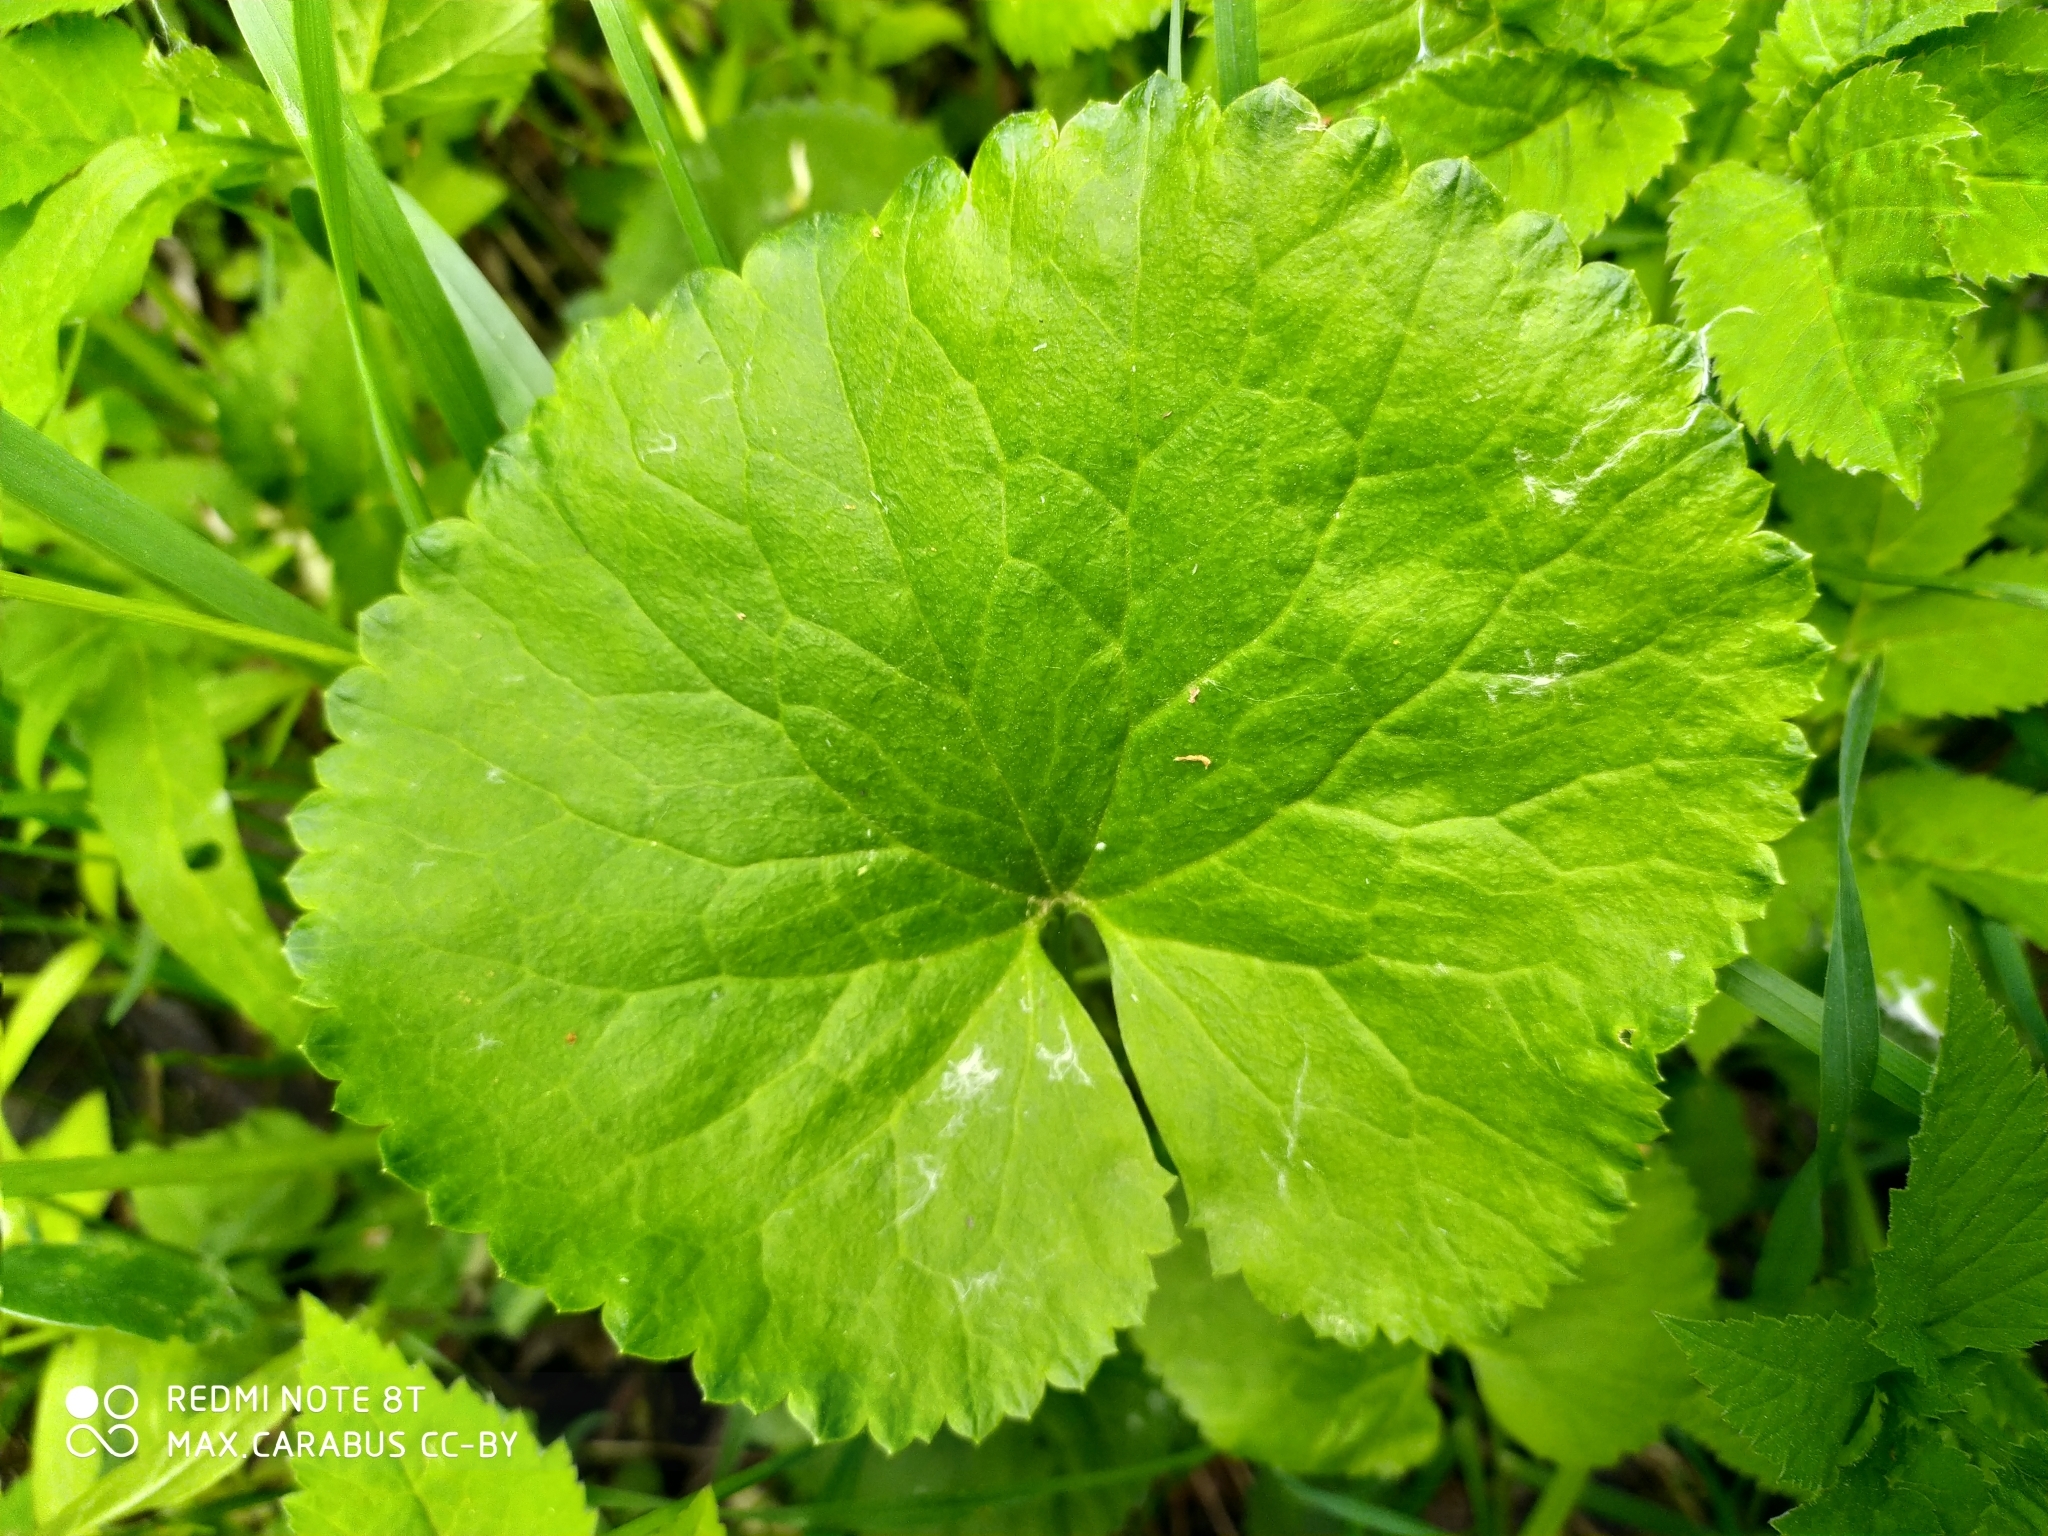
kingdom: Plantae
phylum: Tracheophyta
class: Magnoliopsida
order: Ranunculales
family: Ranunculaceae
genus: Ranunculus
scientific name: Ranunculus cassubicus
